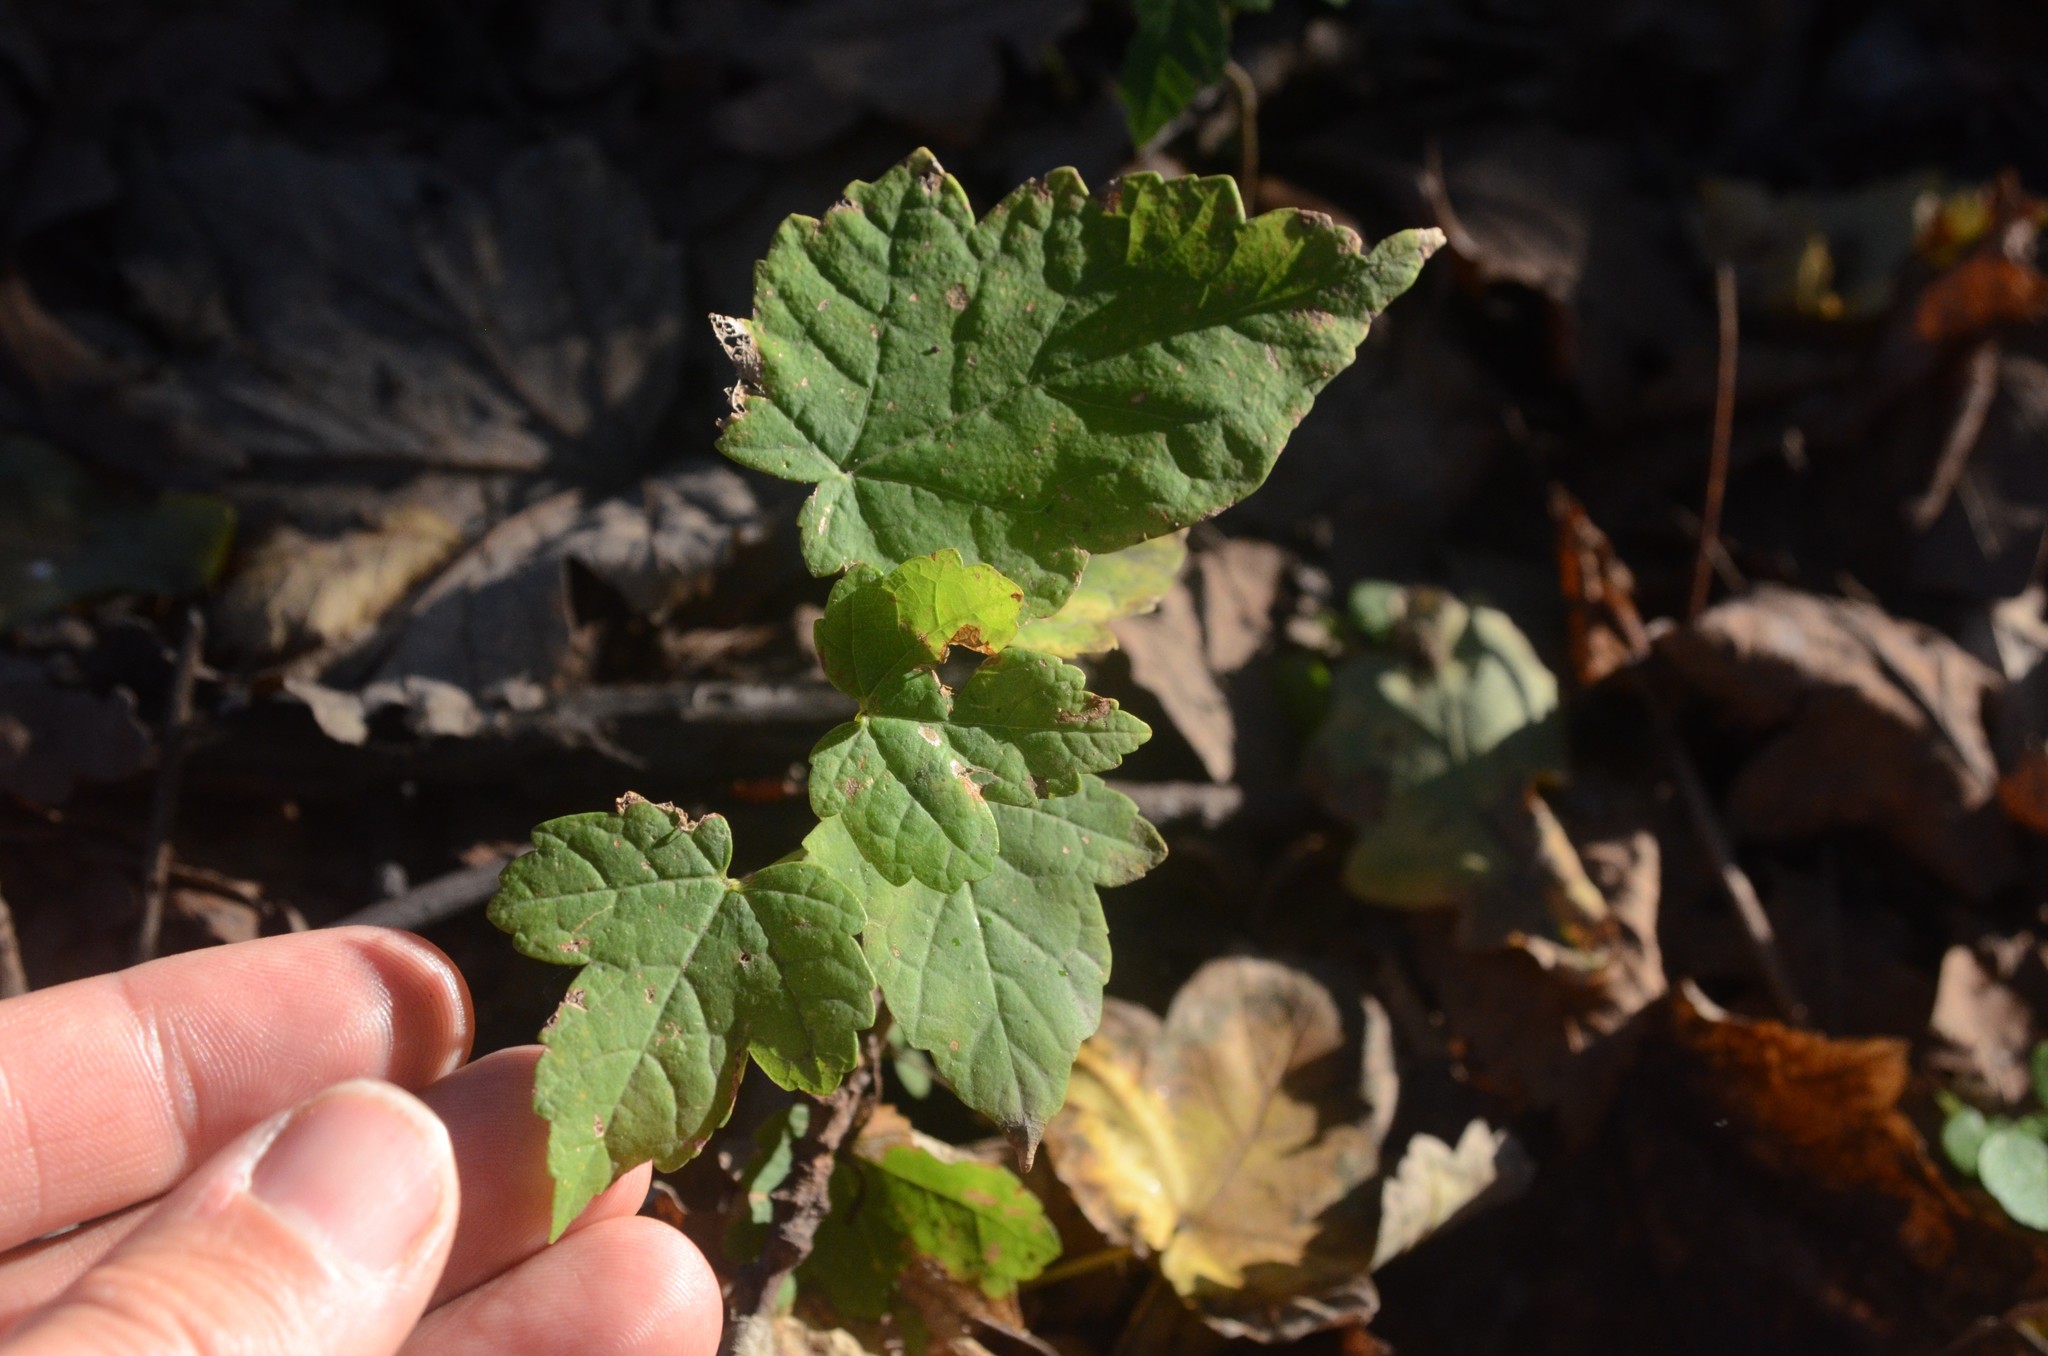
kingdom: Plantae
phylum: Tracheophyta
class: Magnoliopsida
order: Sapindales
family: Sapindaceae
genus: Acer
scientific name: Acer pseudoplatanus
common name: Sycamore
